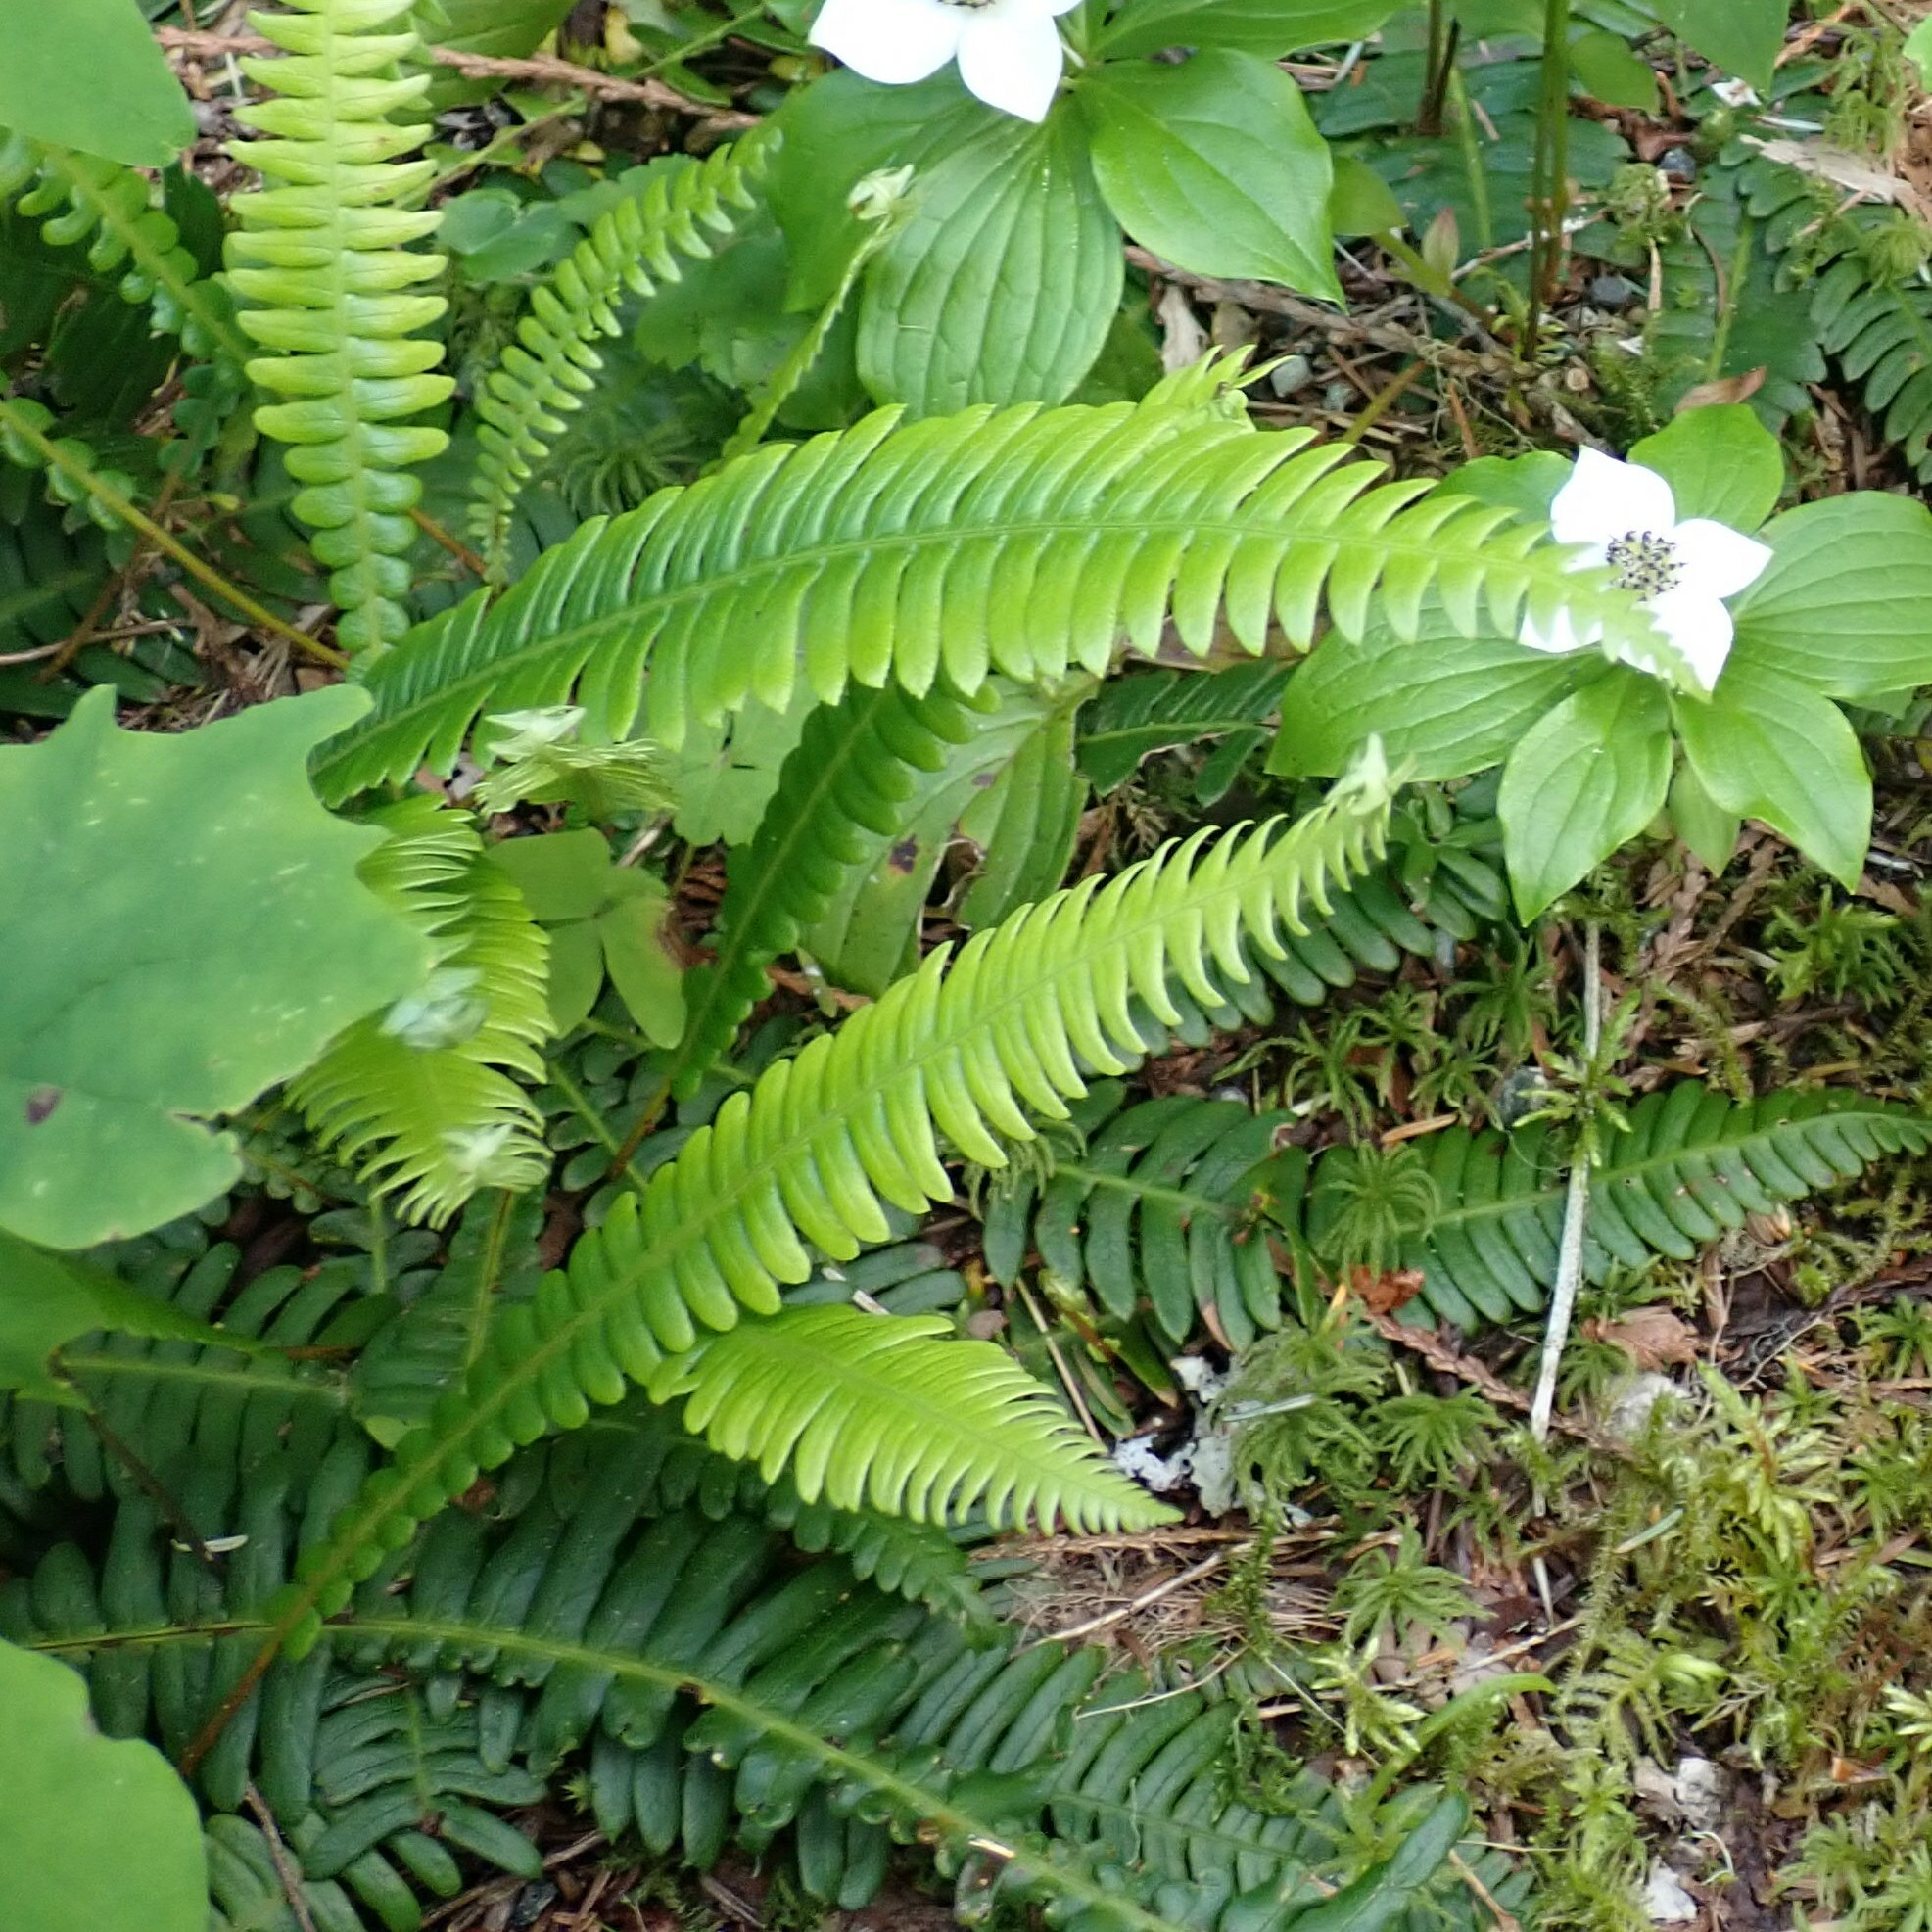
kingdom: Plantae
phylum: Tracheophyta
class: Polypodiopsida
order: Polypodiales
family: Blechnaceae
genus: Struthiopteris
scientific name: Struthiopteris spicant
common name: Deer fern
